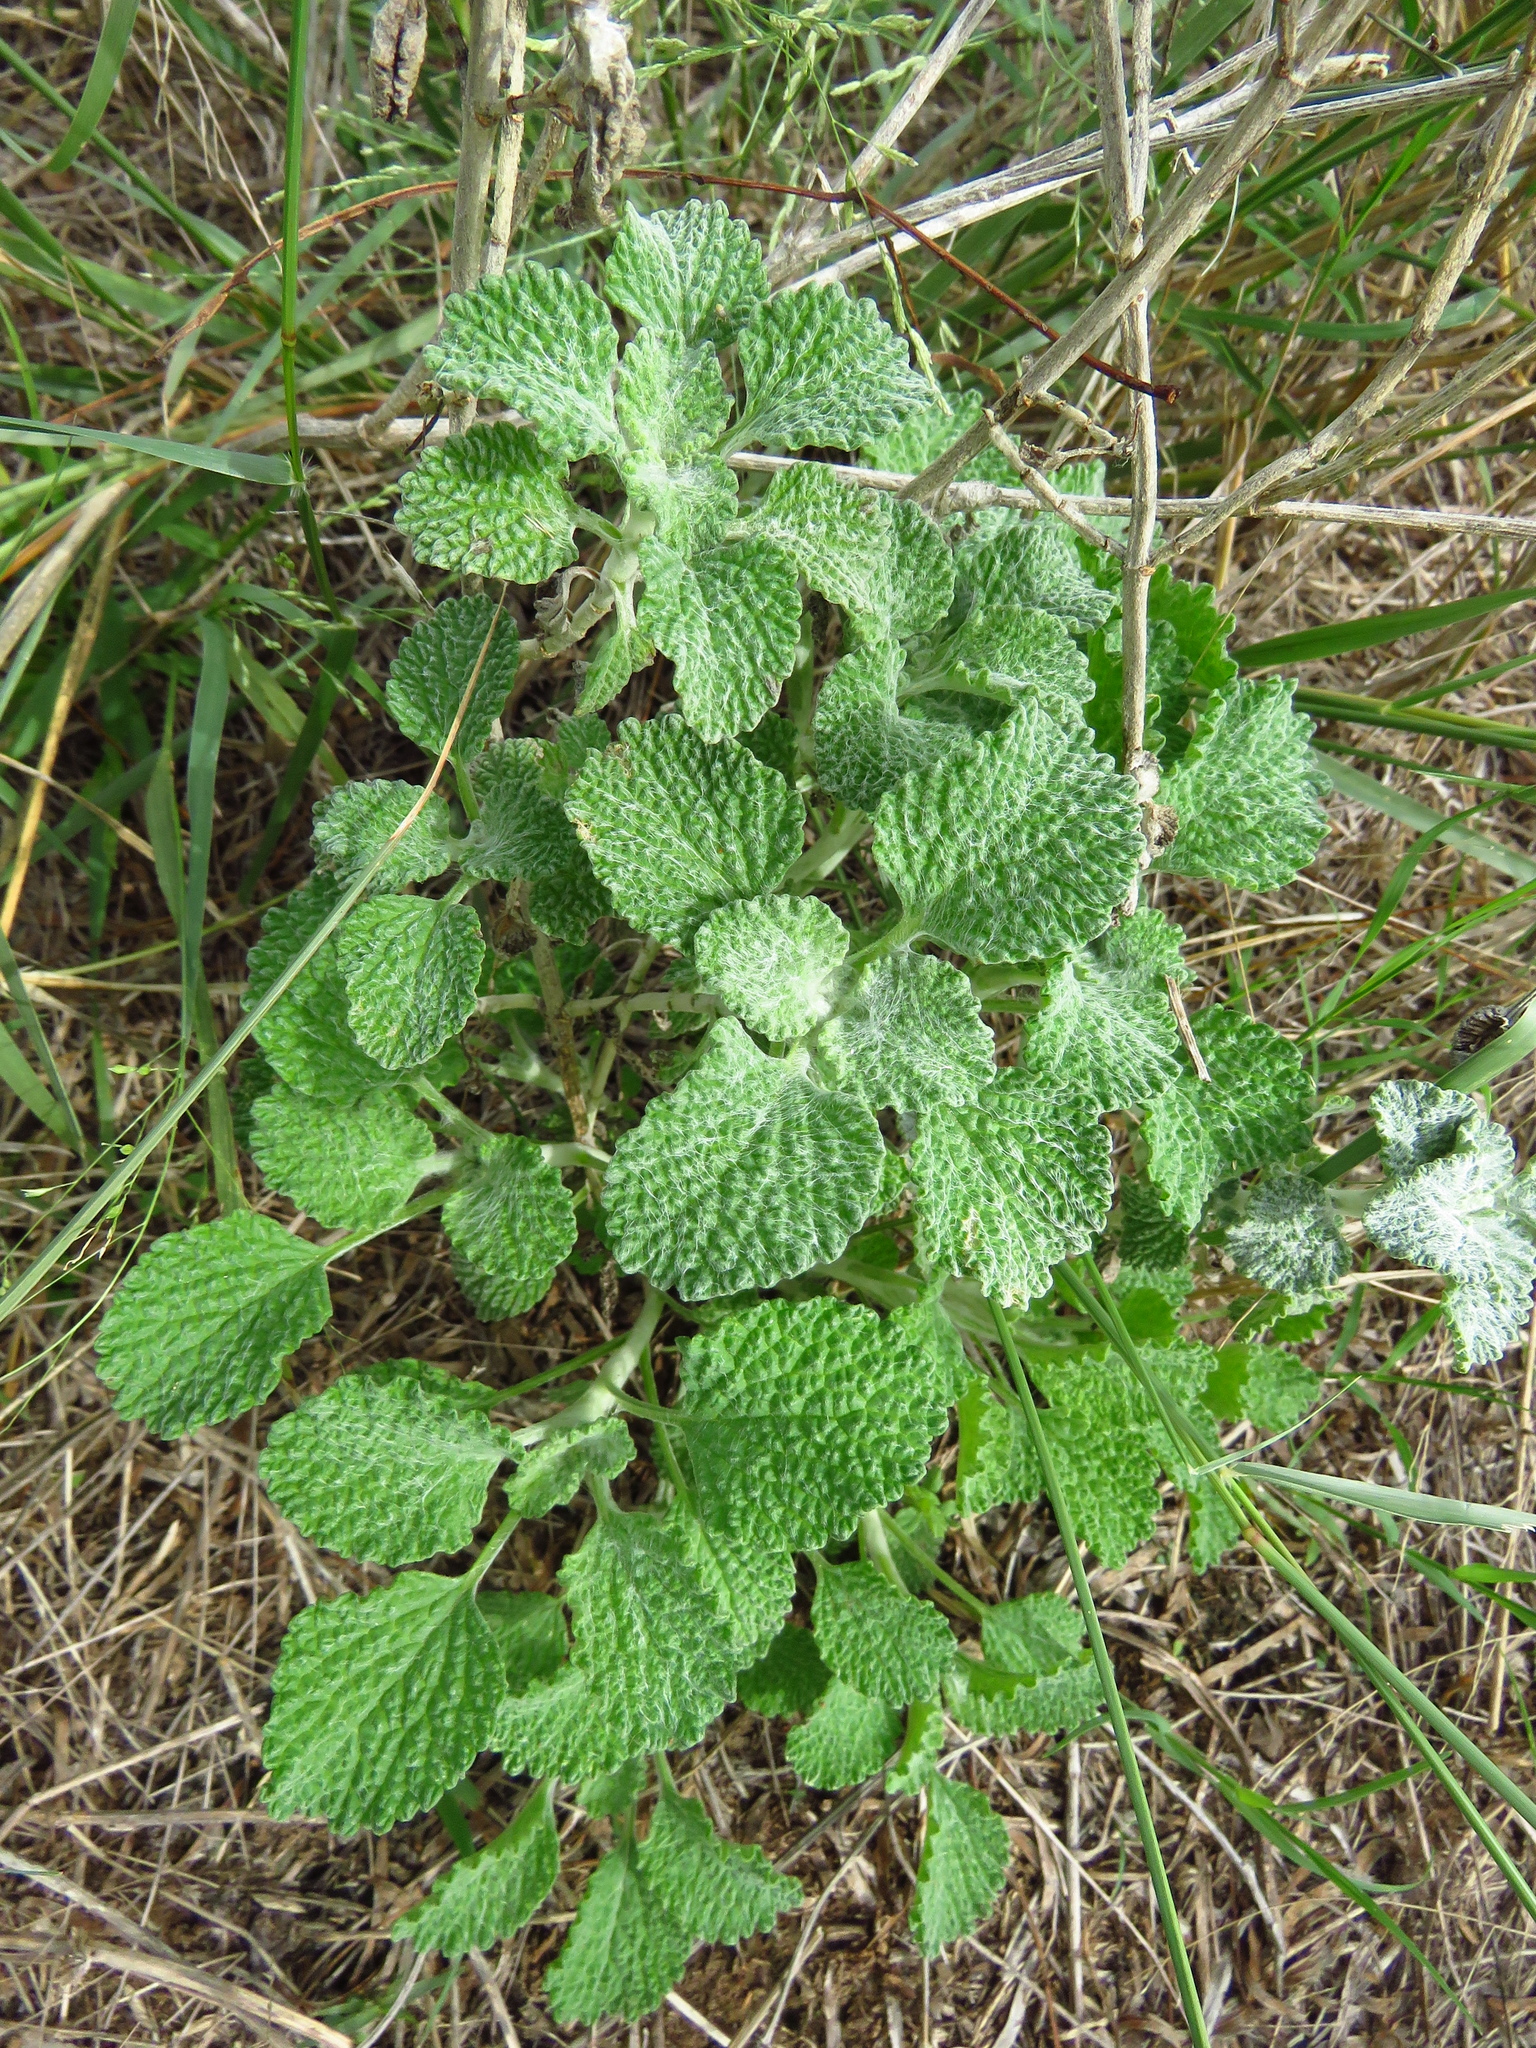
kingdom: Plantae
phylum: Tracheophyta
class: Magnoliopsida
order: Lamiales
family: Lamiaceae
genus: Marrubium
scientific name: Marrubium vulgare
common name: Horehound
